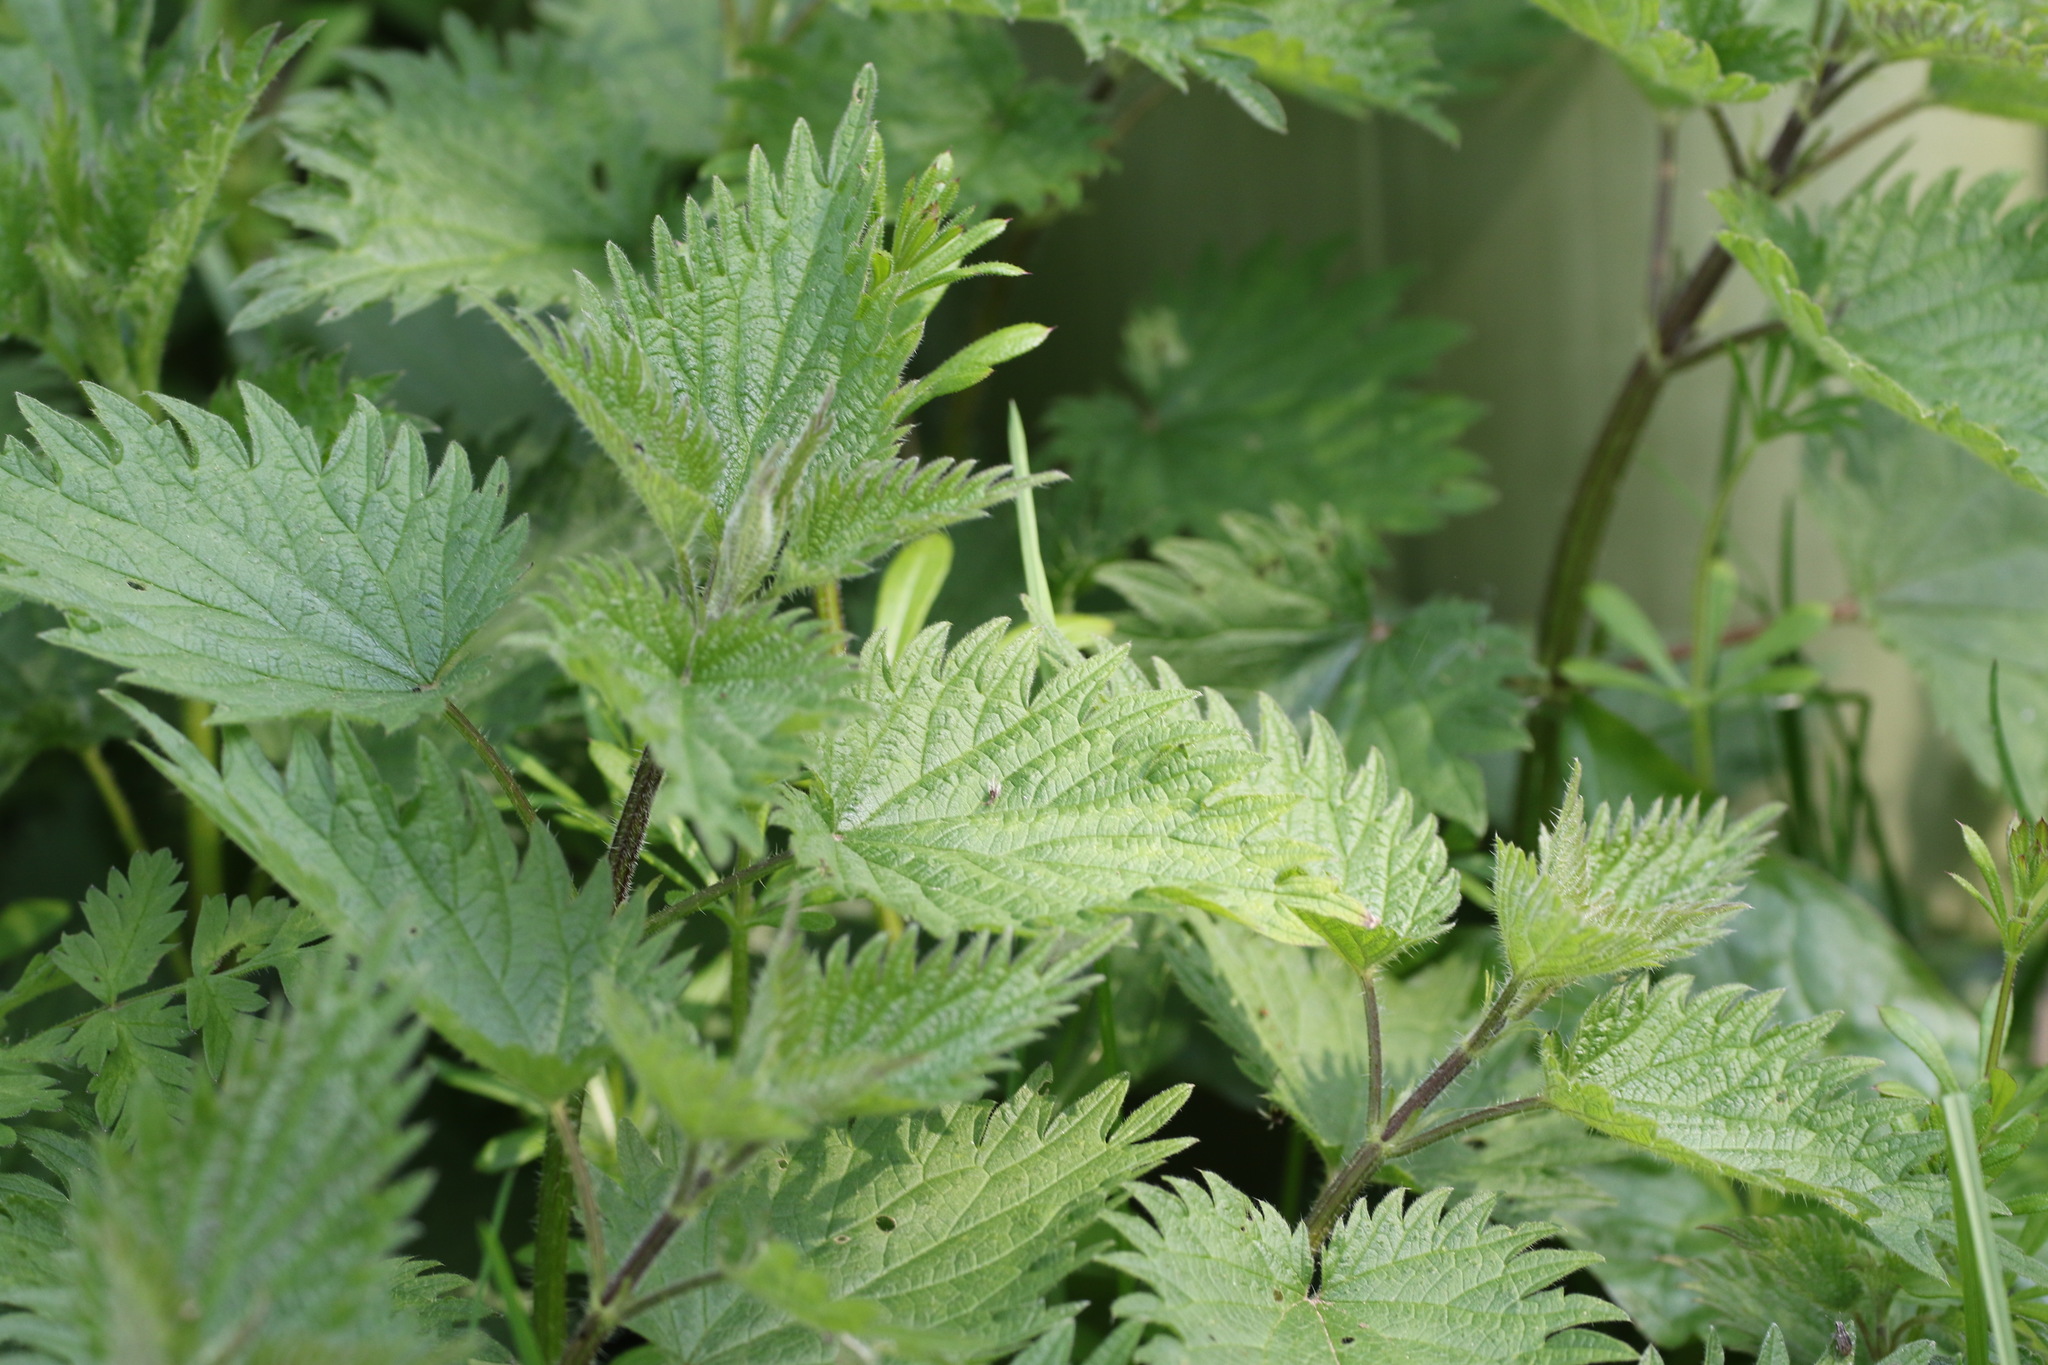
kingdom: Plantae
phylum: Tracheophyta
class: Magnoliopsida
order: Rosales
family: Urticaceae
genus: Urtica
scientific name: Urtica dioica
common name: Common nettle
